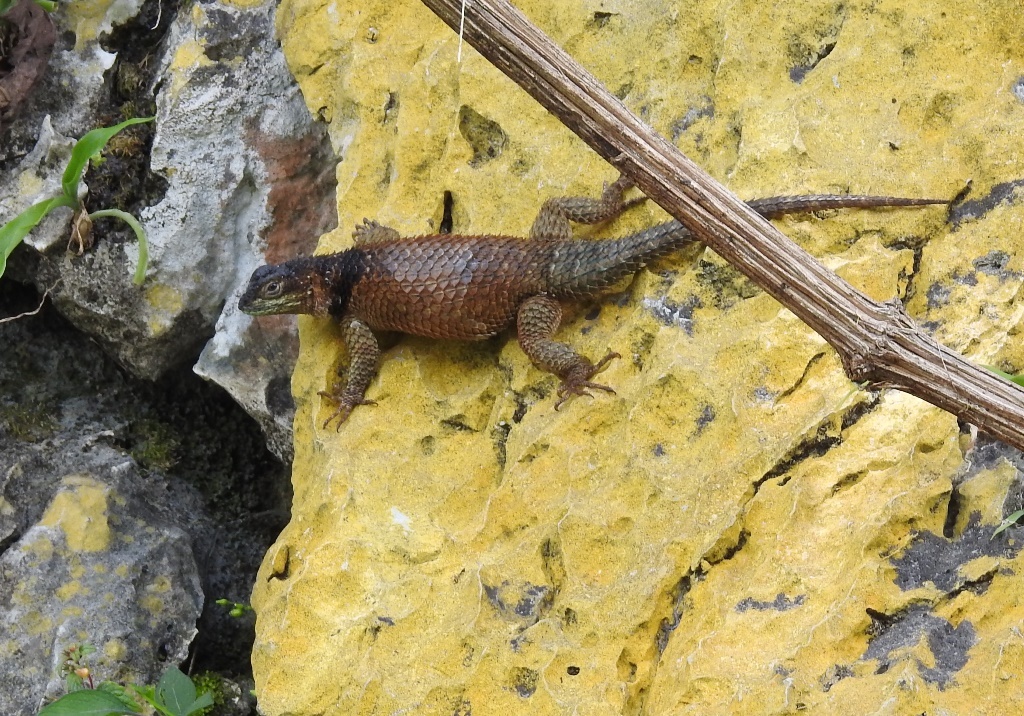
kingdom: Animalia
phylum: Chordata
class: Squamata
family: Phrynosomatidae
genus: Sceloporus
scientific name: Sceloporus serrifer
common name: Blue spiny lizard
